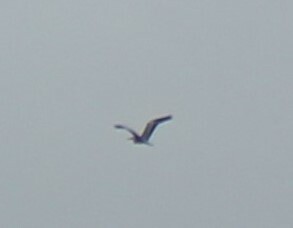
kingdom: Animalia
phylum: Chordata
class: Aves
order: Pelecaniformes
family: Ardeidae
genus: Ardea
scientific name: Ardea cinerea
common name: Grey heron
